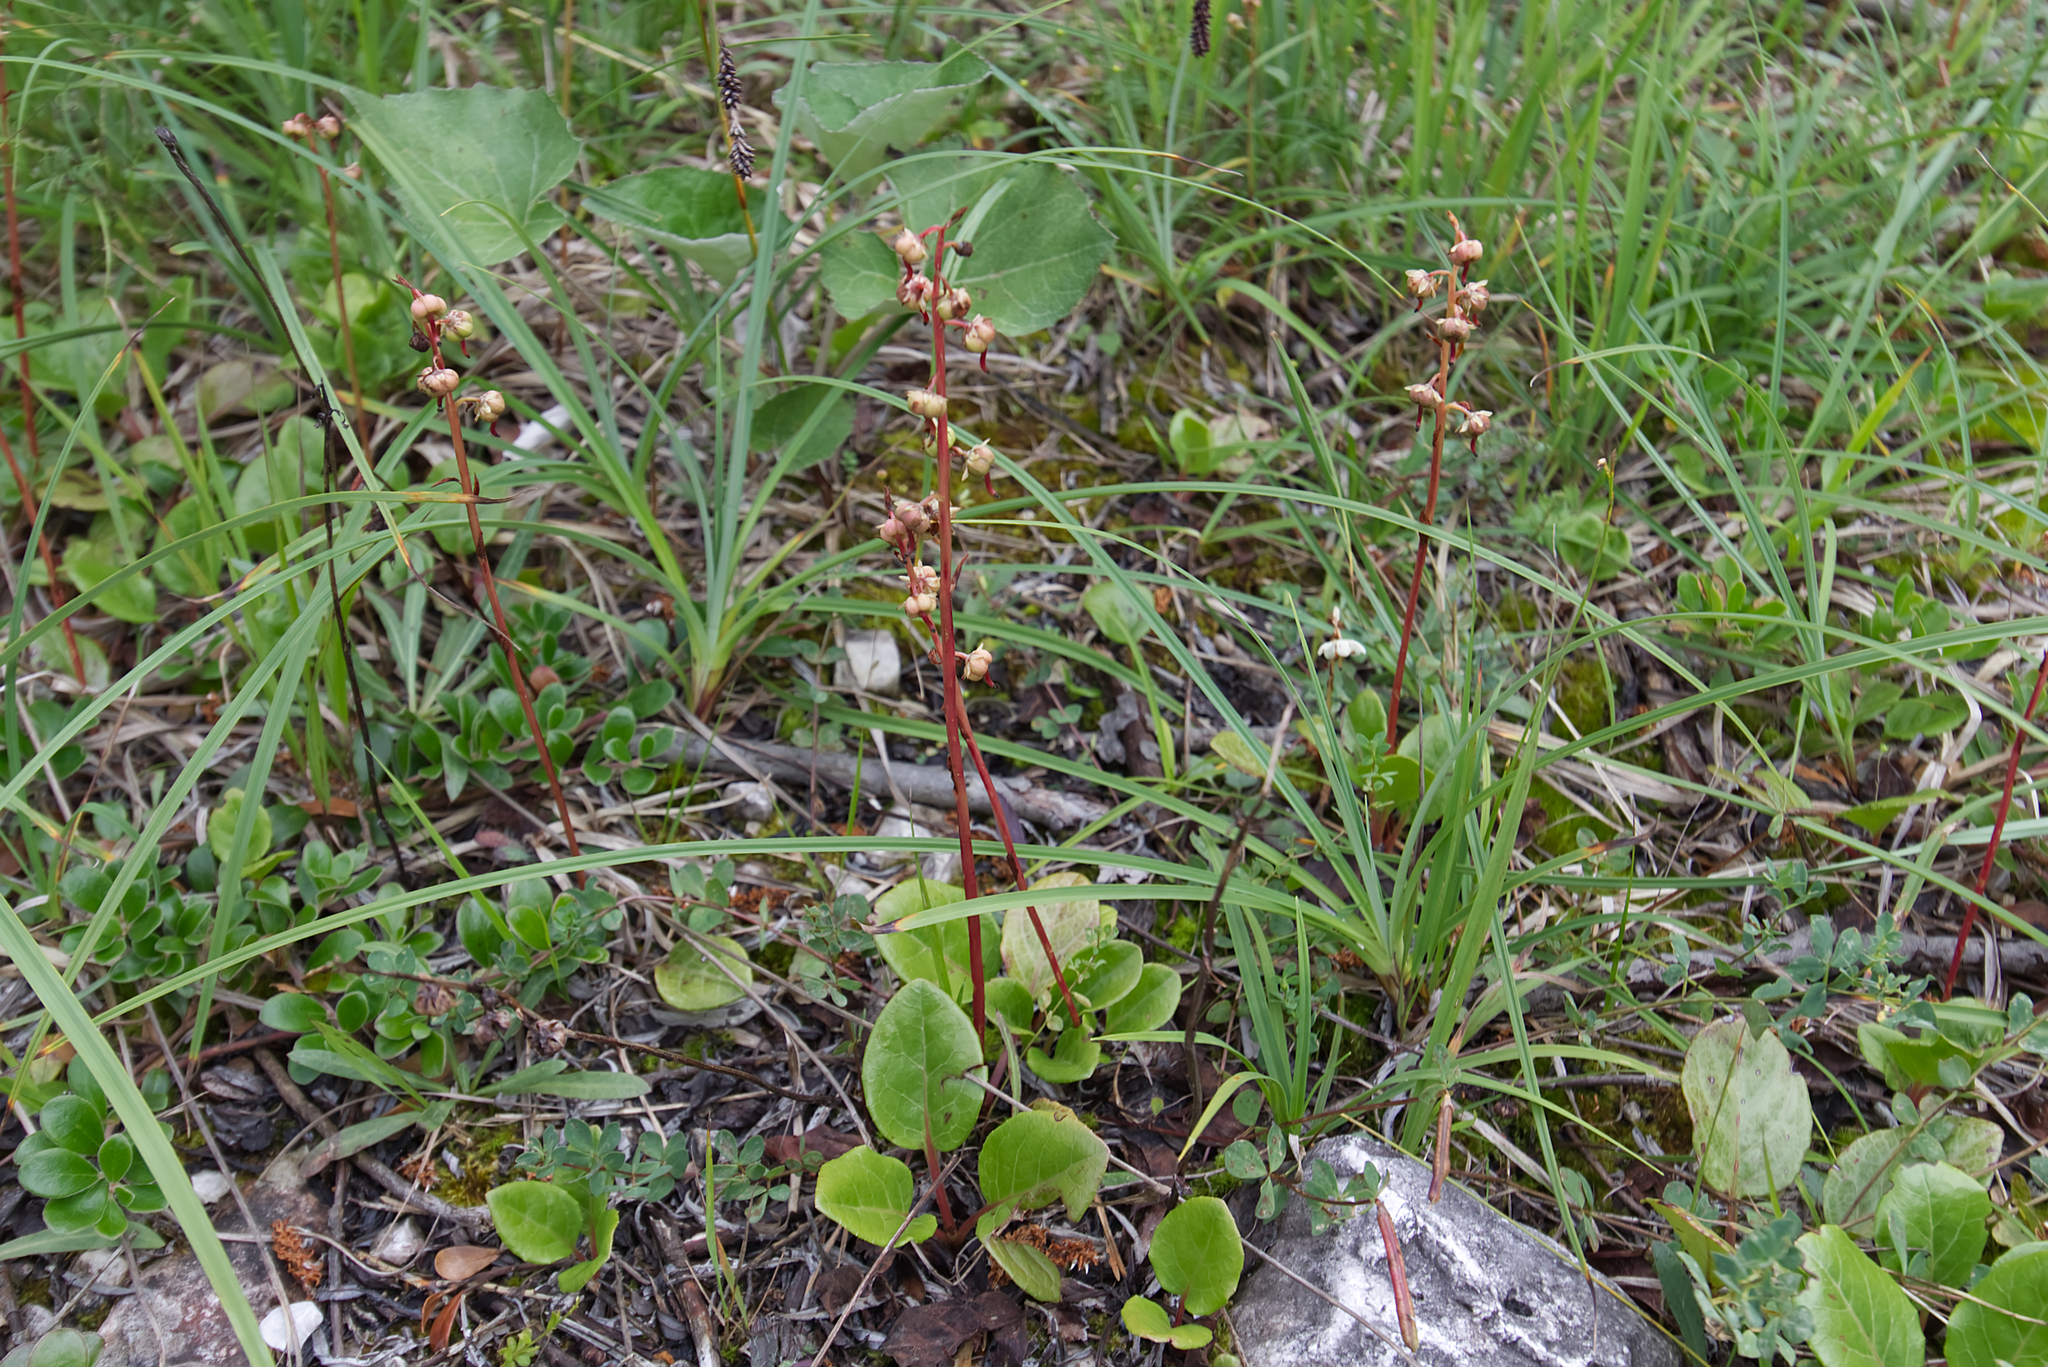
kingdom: Plantae
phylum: Tracheophyta
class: Magnoliopsida
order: Ericales
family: Ericaceae
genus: Pyrola
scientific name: Pyrola rotundifolia
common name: Round-leaved wintergreen
